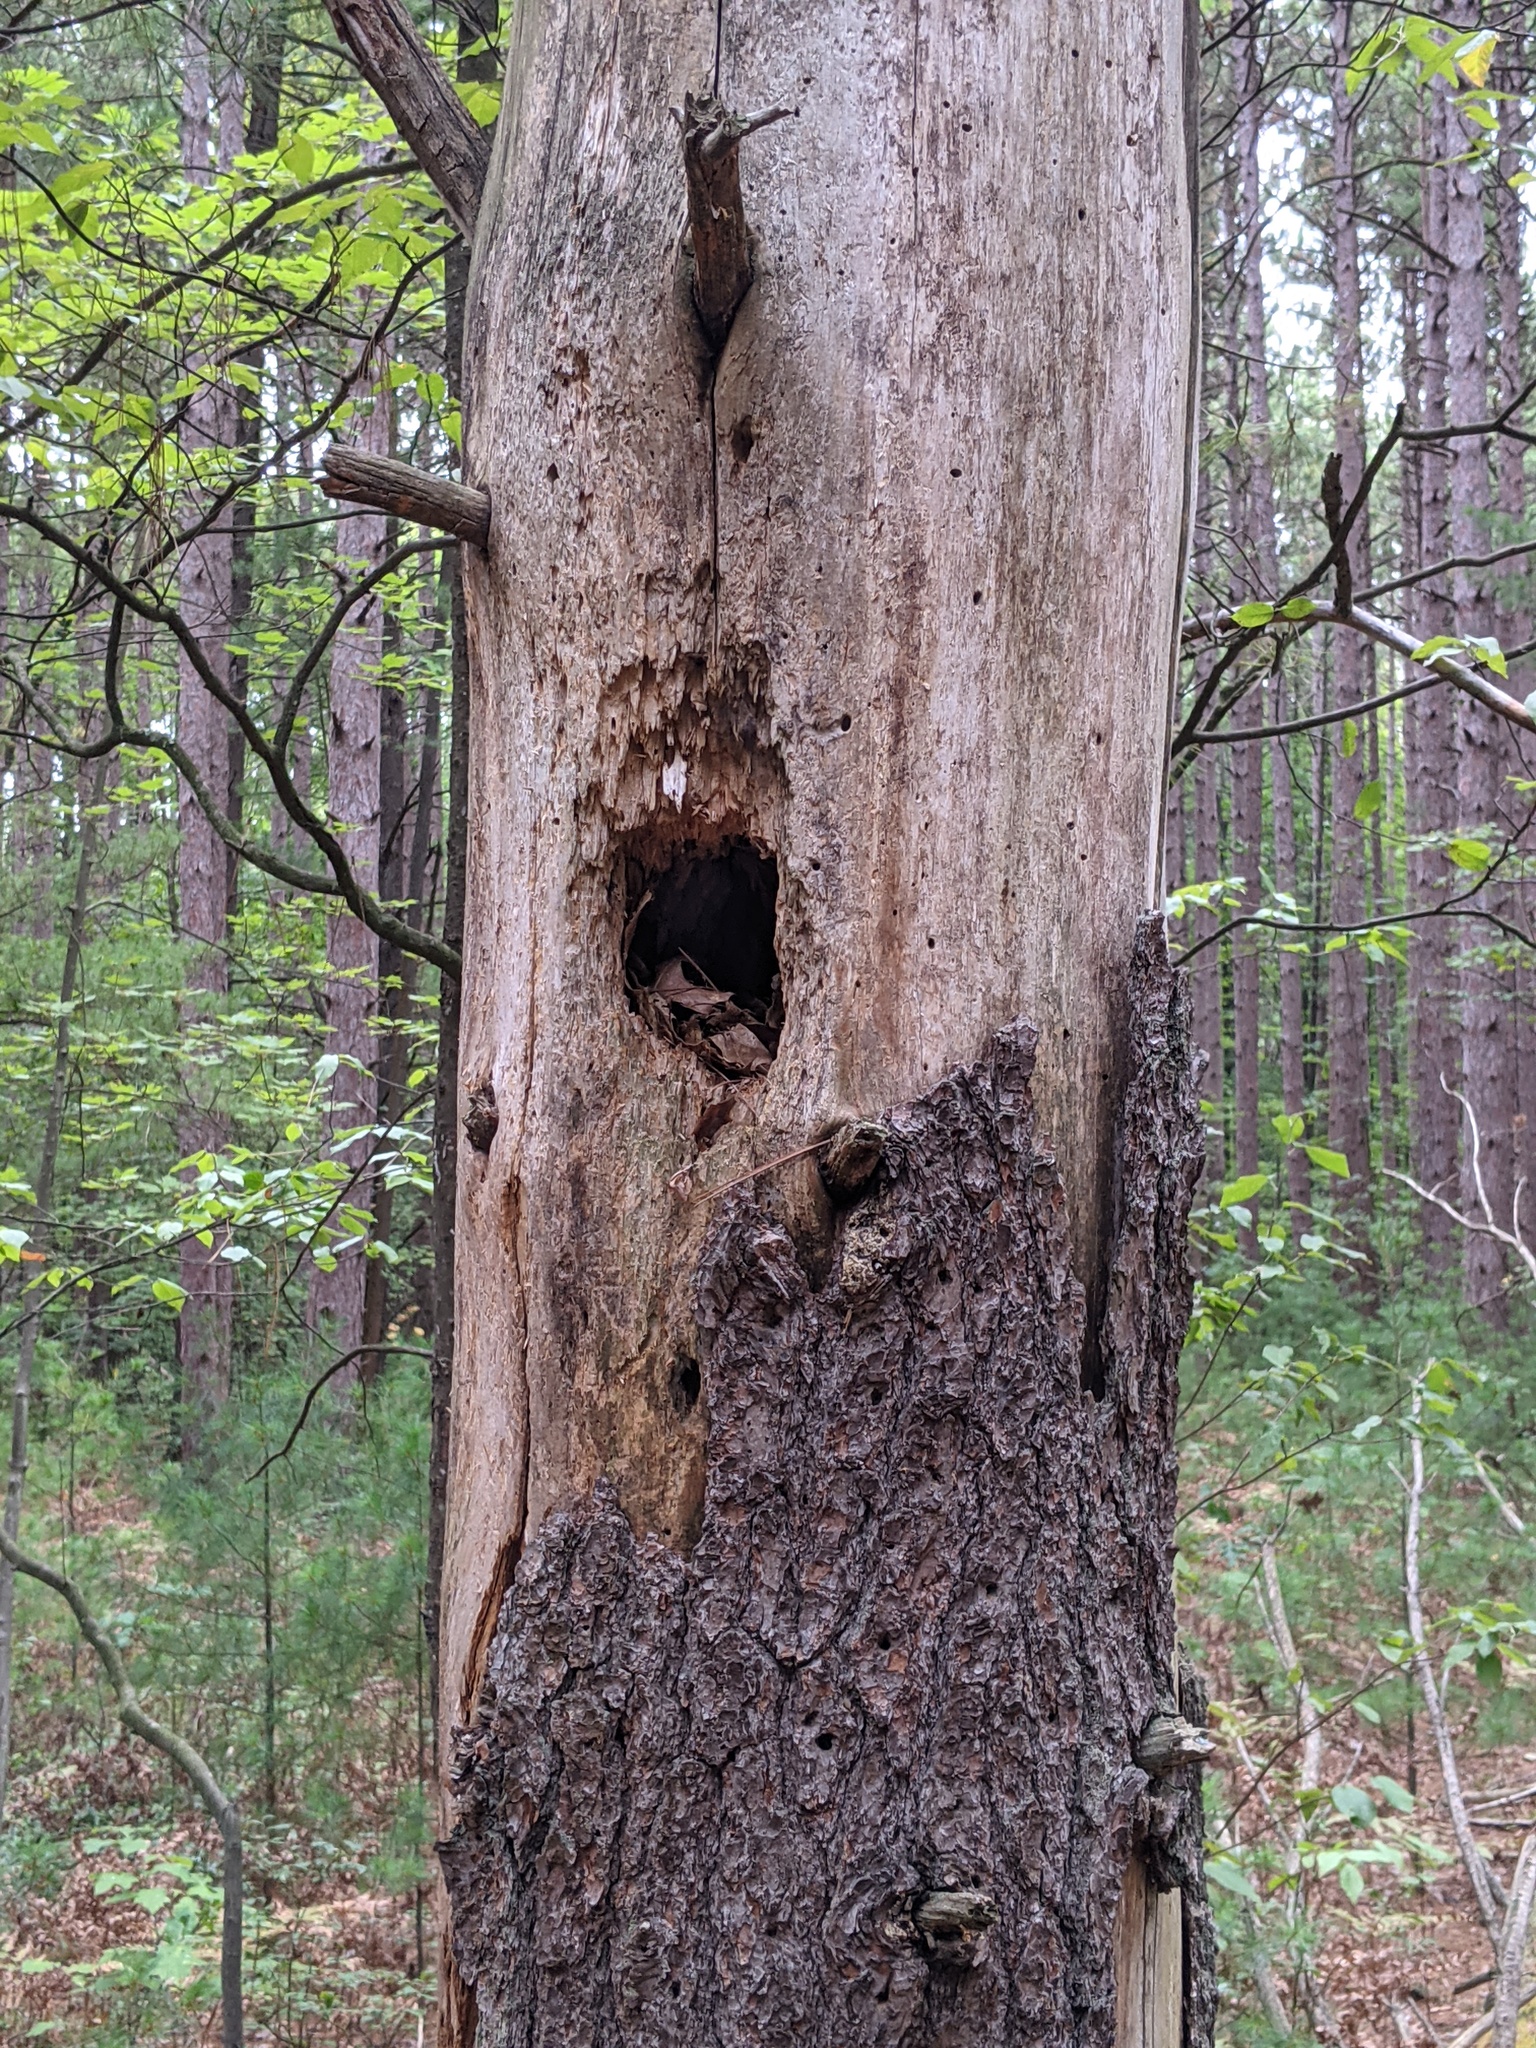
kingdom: Animalia
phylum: Chordata
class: Aves
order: Piciformes
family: Picidae
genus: Dryocopus
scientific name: Dryocopus pileatus
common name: Pileated woodpecker
